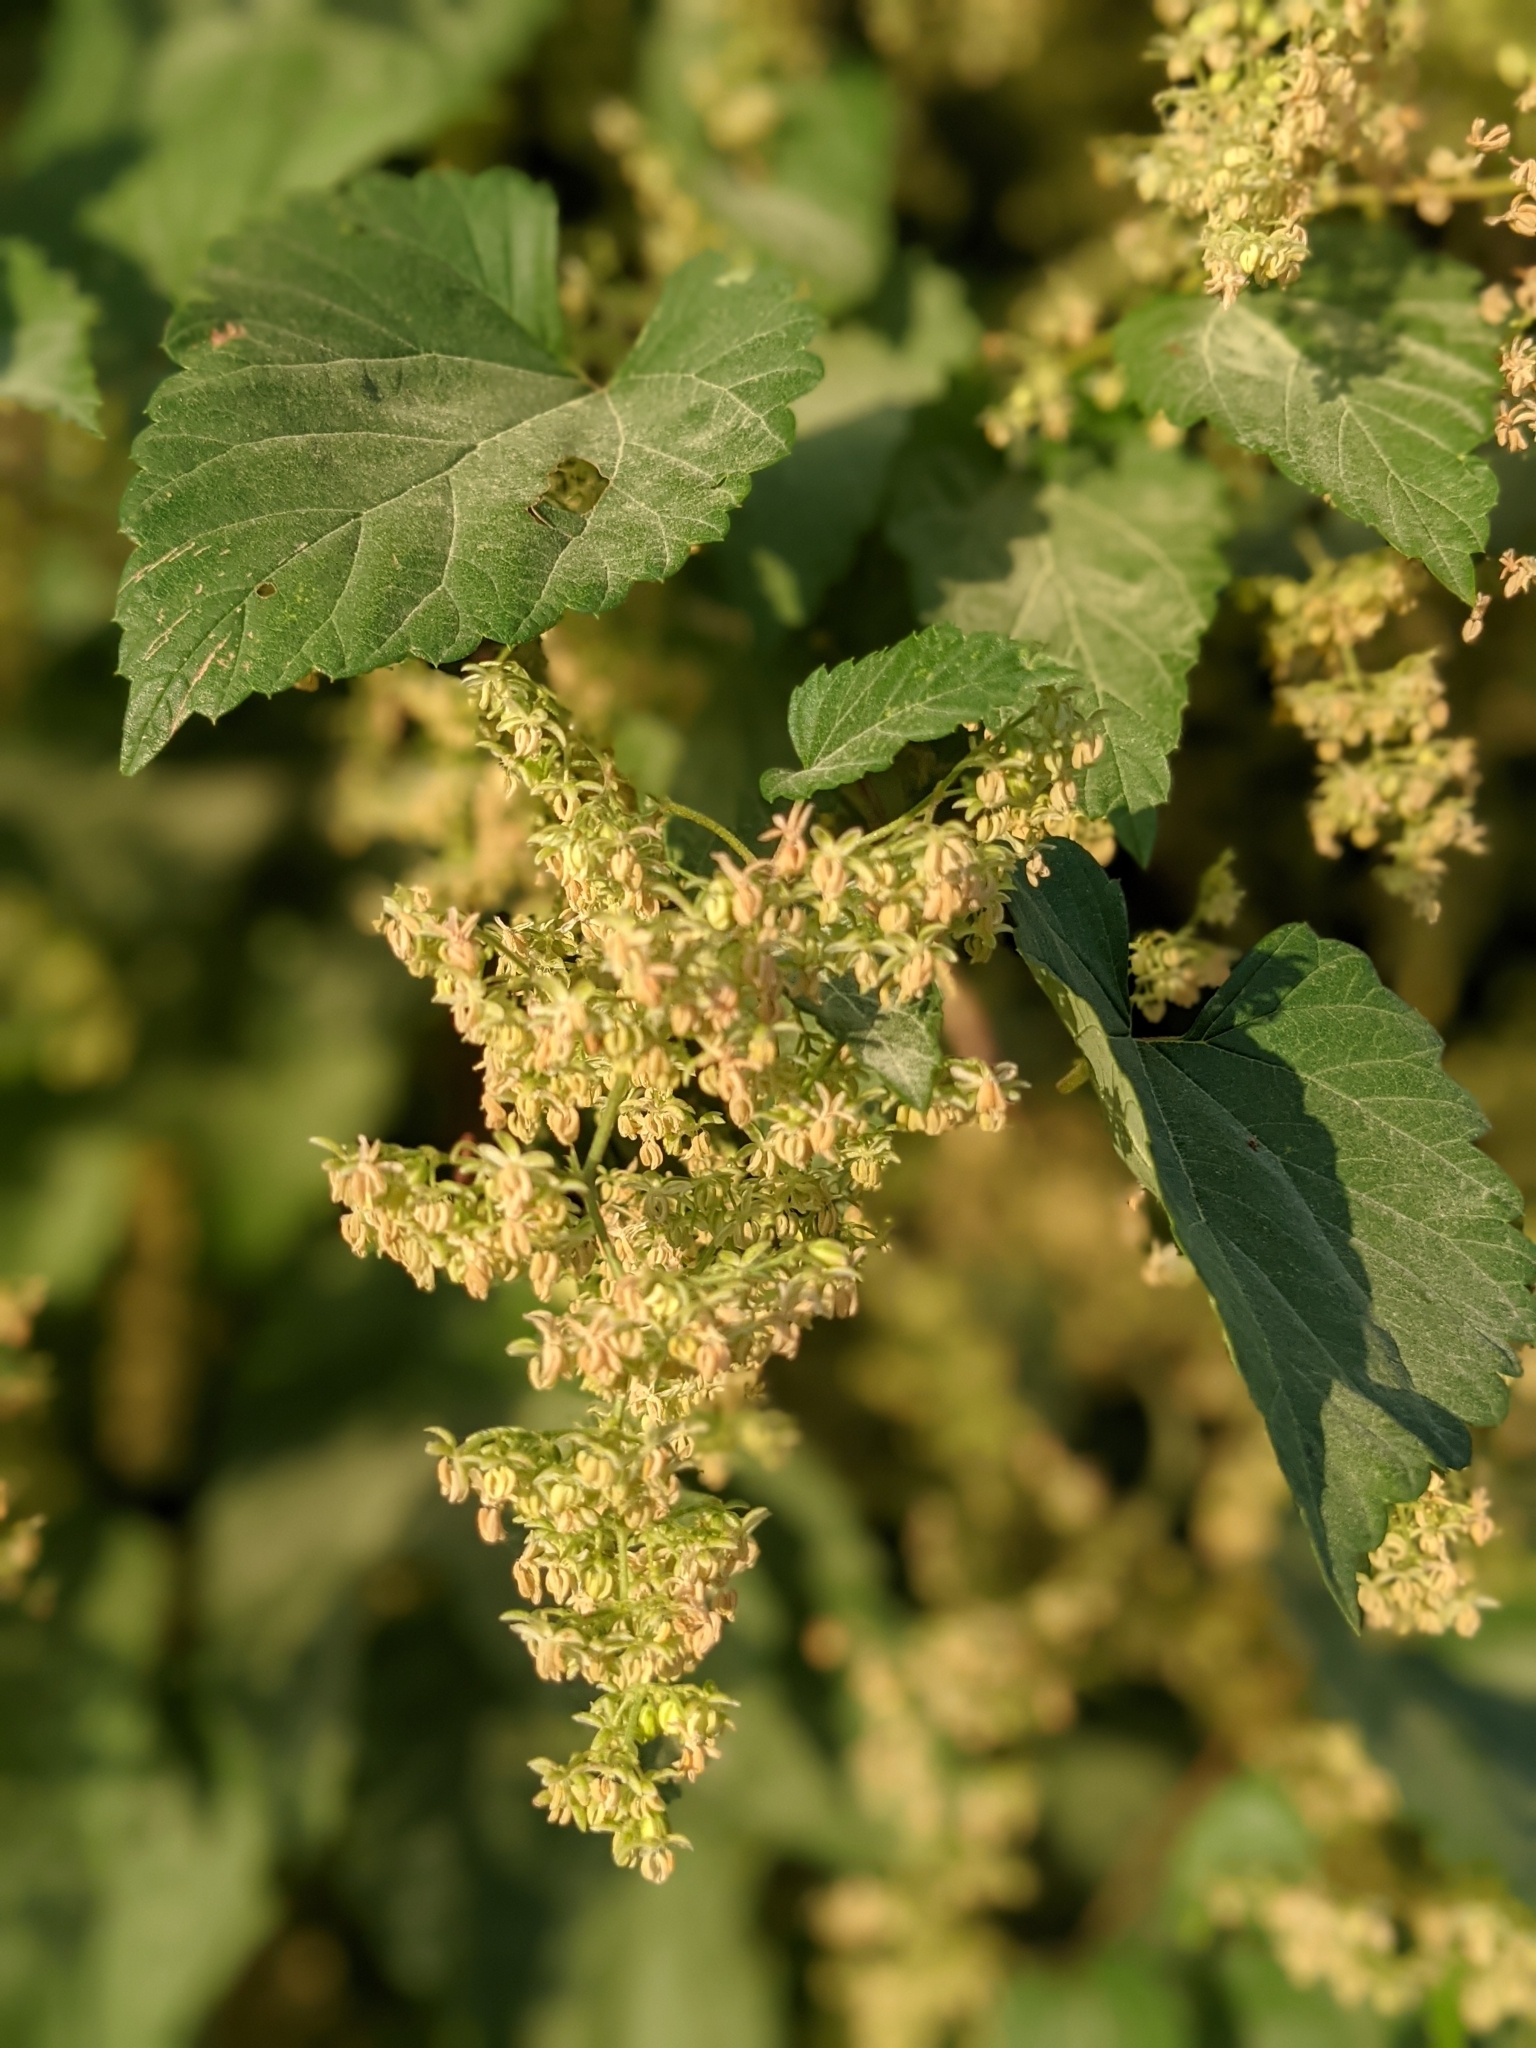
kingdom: Plantae
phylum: Tracheophyta
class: Magnoliopsida
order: Rosales
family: Cannabaceae
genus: Humulus
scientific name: Humulus lupulus
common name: Hop
